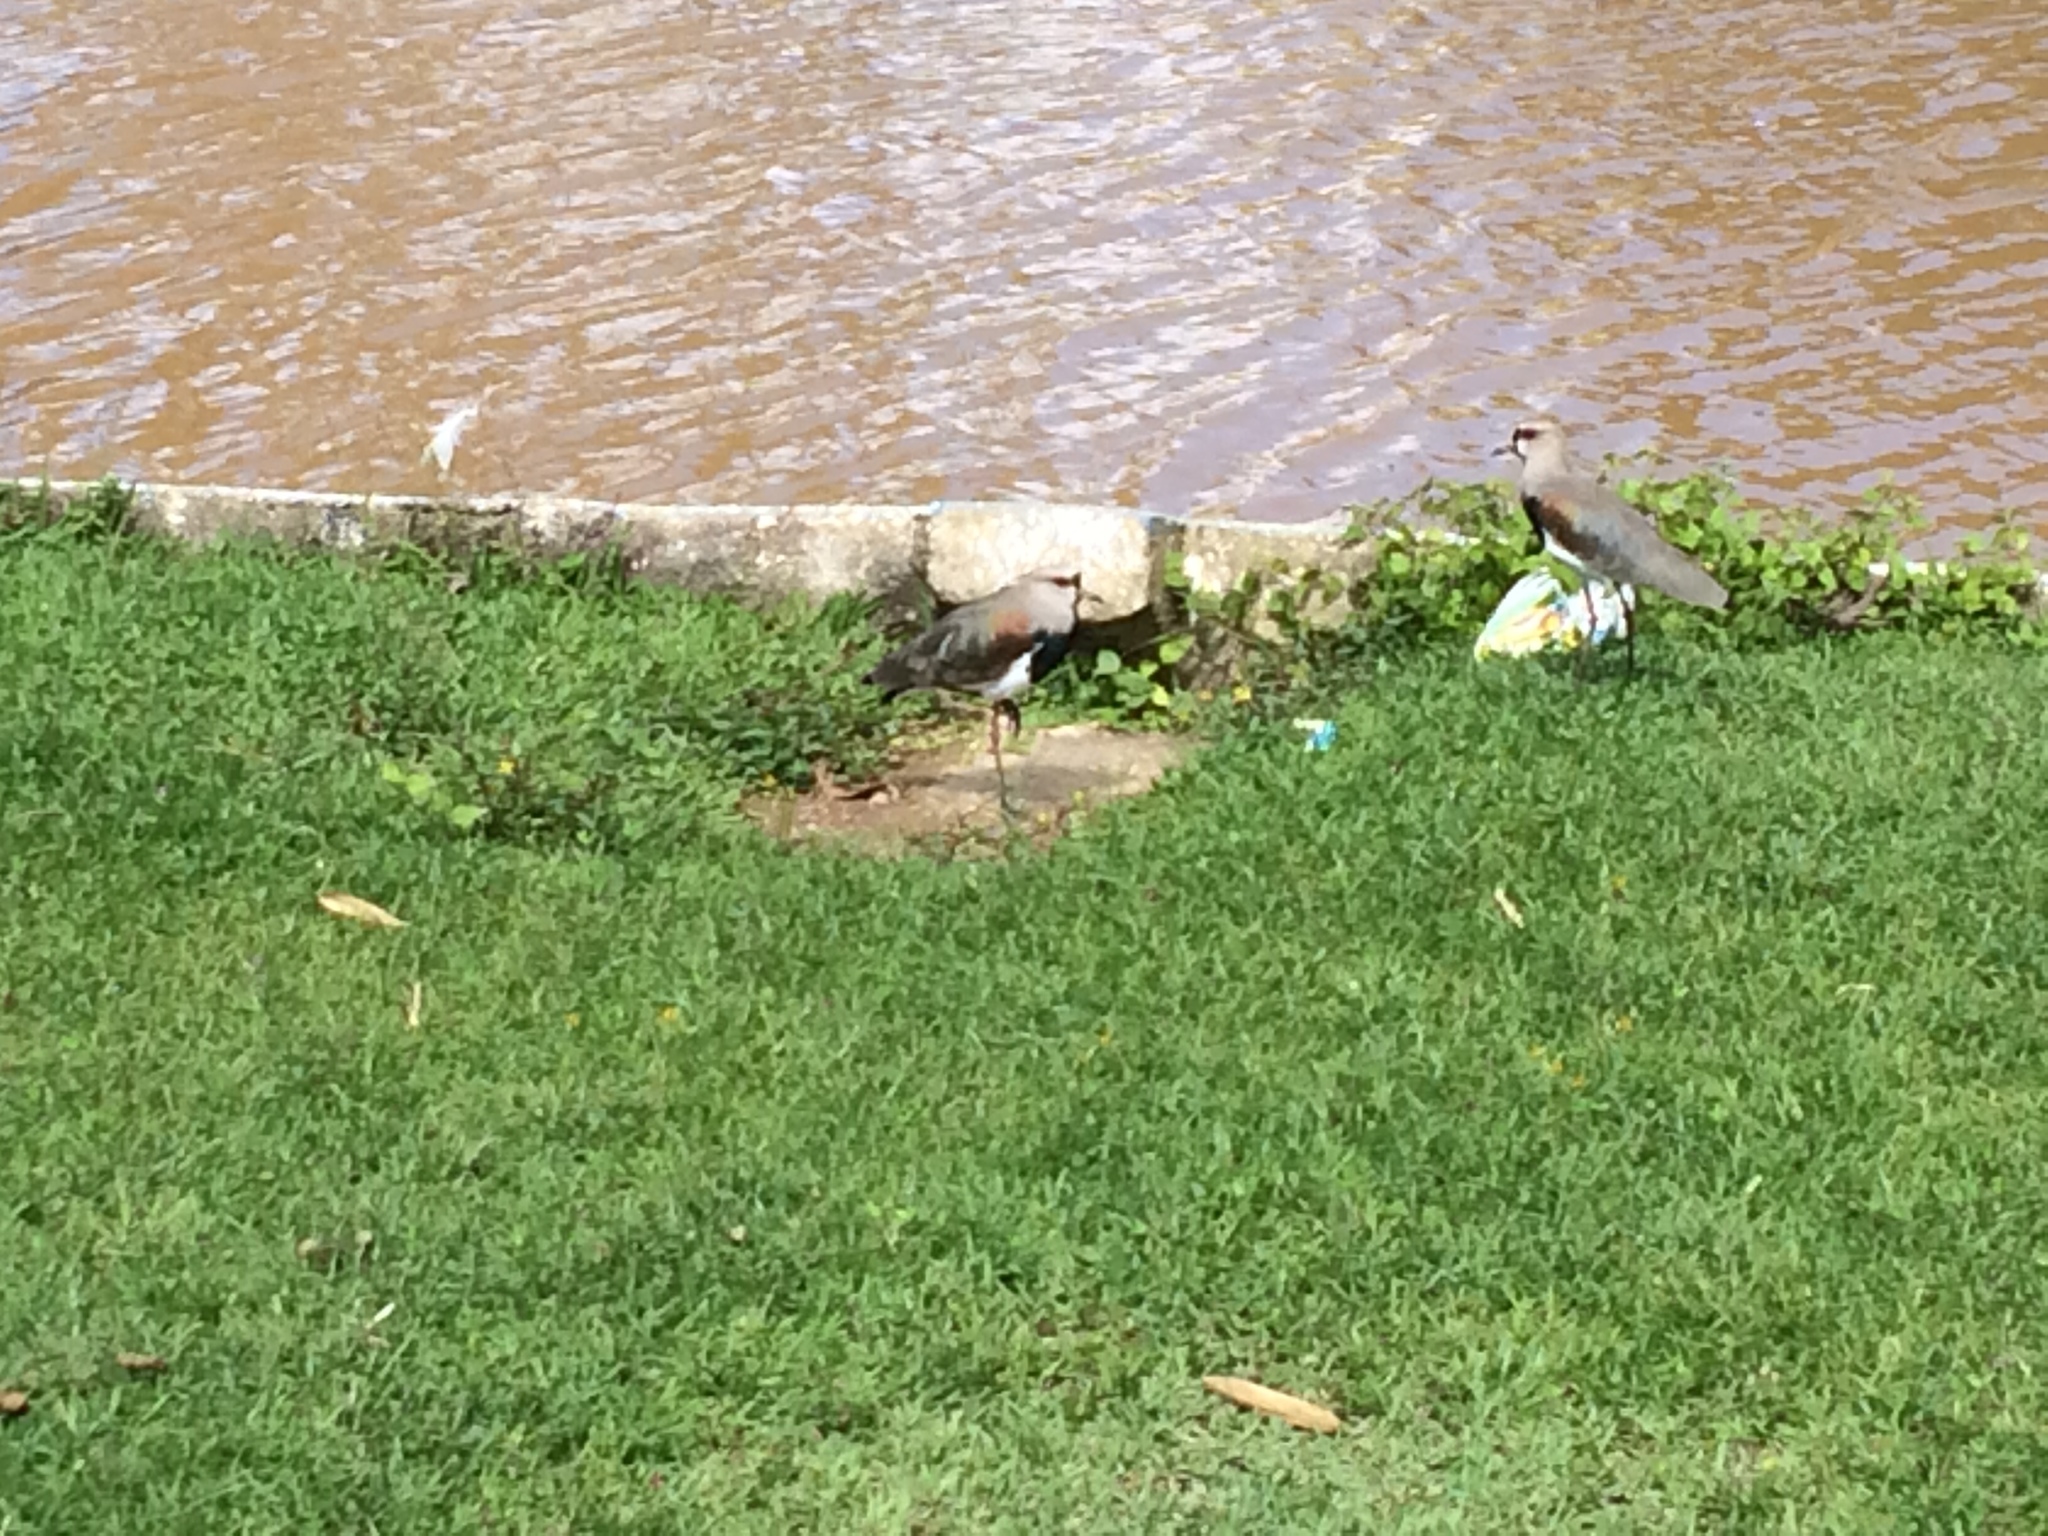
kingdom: Animalia
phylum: Chordata
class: Aves
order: Charadriiformes
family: Charadriidae
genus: Vanellus
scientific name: Vanellus chilensis
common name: Southern lapwing
